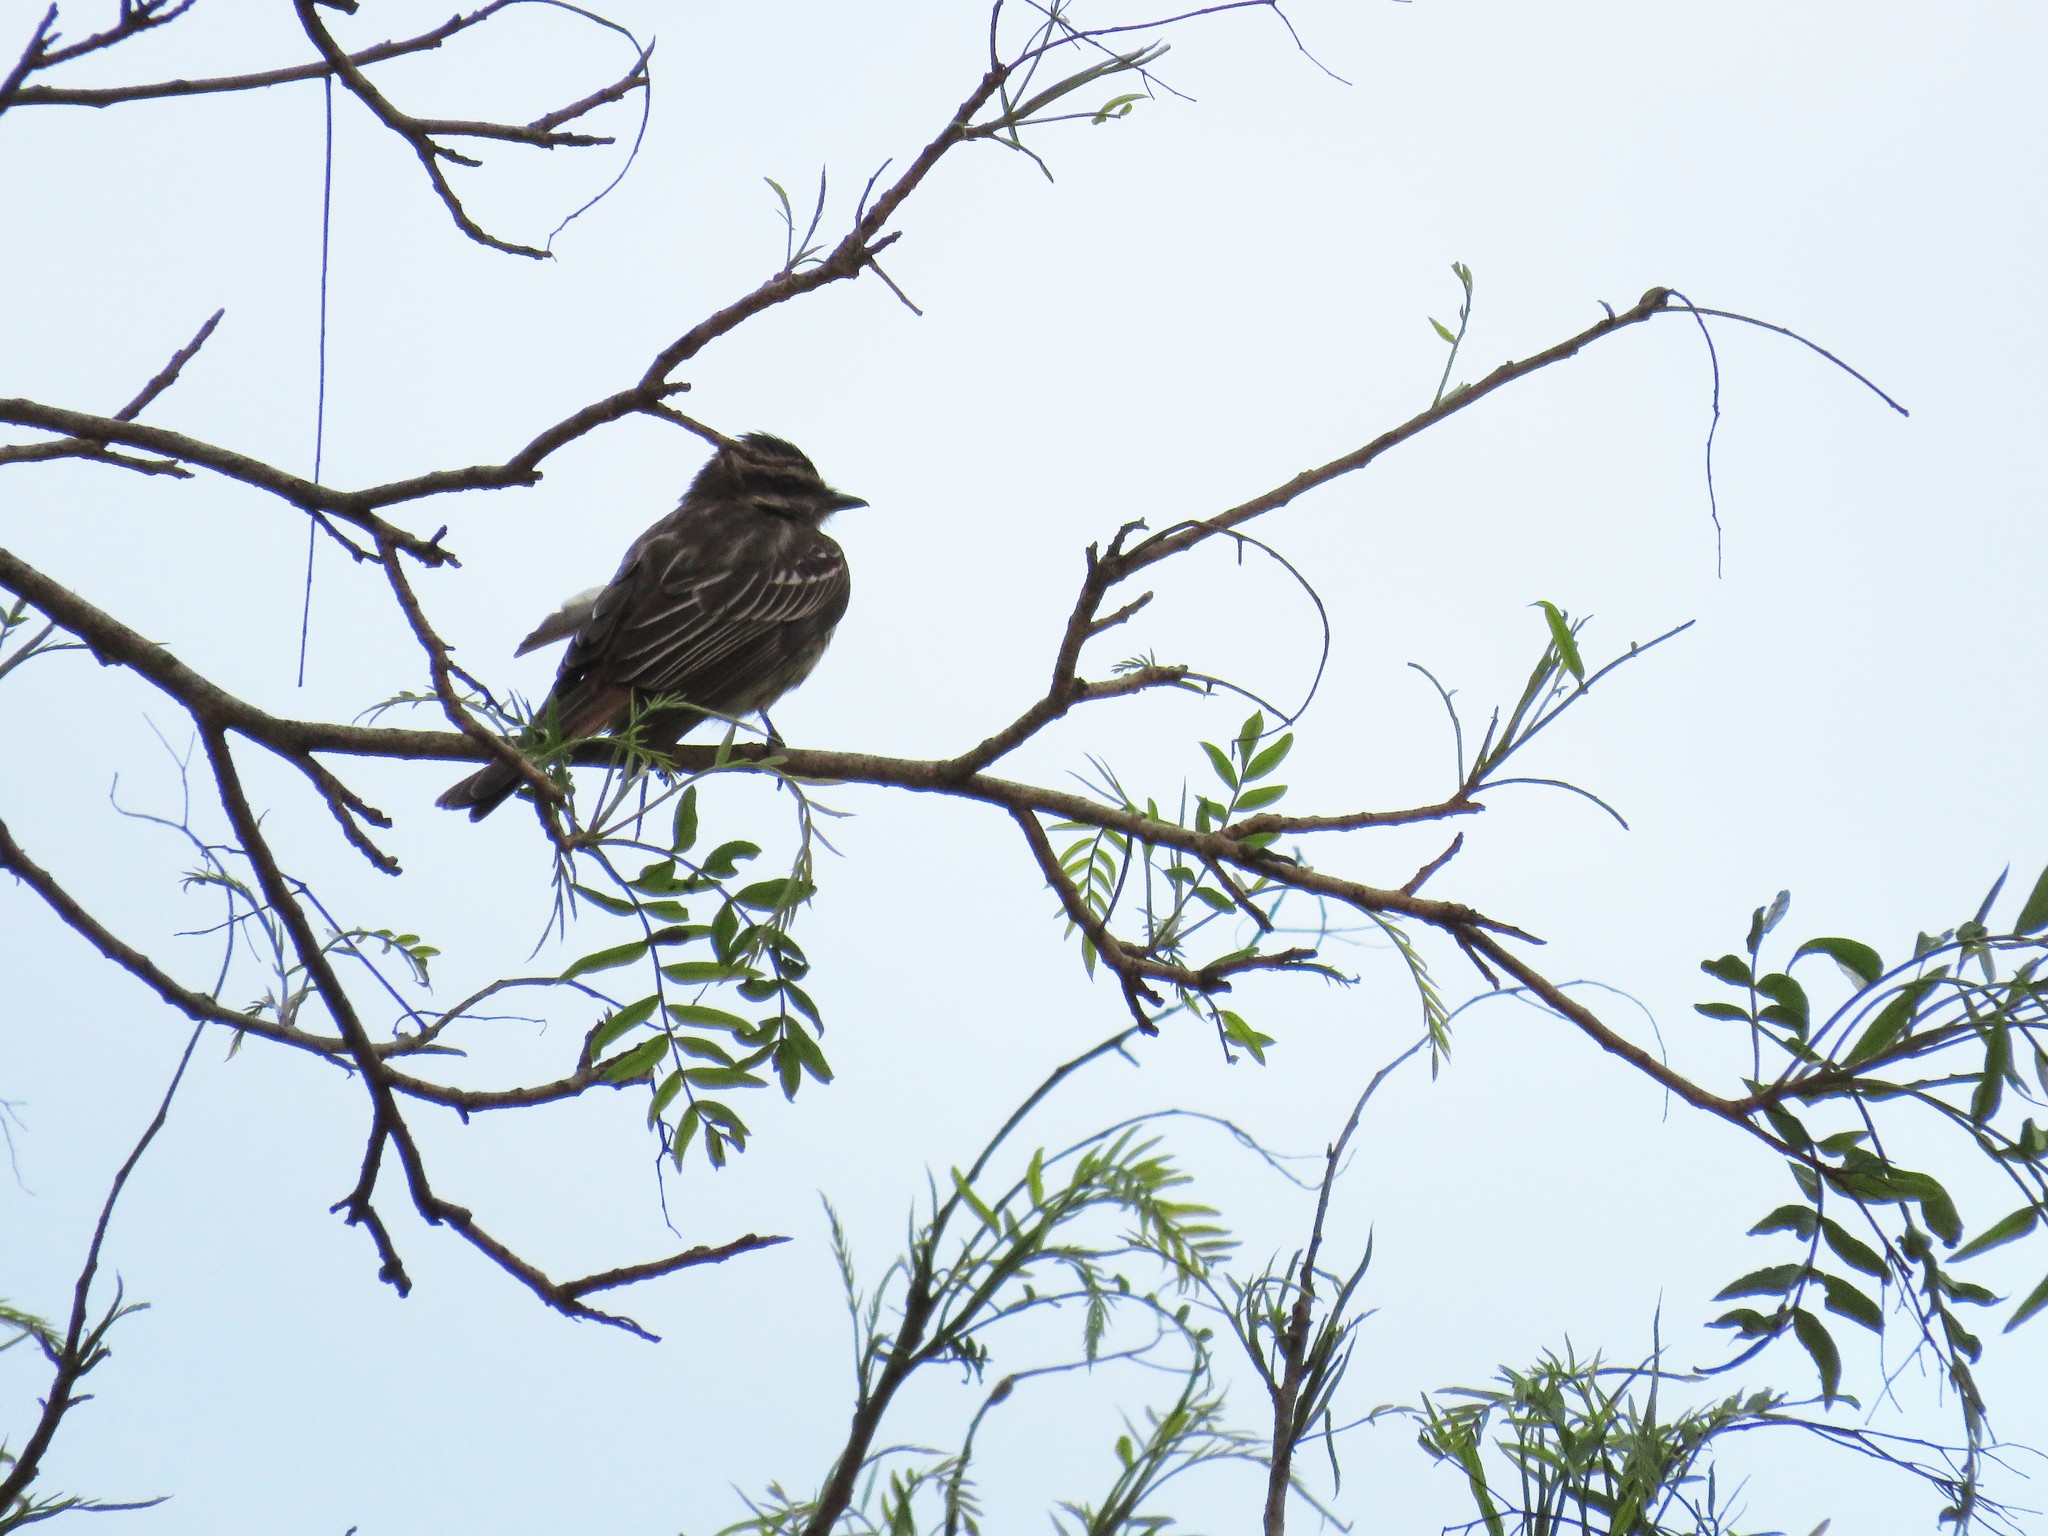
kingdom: Animalia
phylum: Chordata
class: Aves
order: Passeriformes
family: Tyrannidae
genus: Empidonomus
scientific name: Empidonomus varius
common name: Variegated flycatcher
